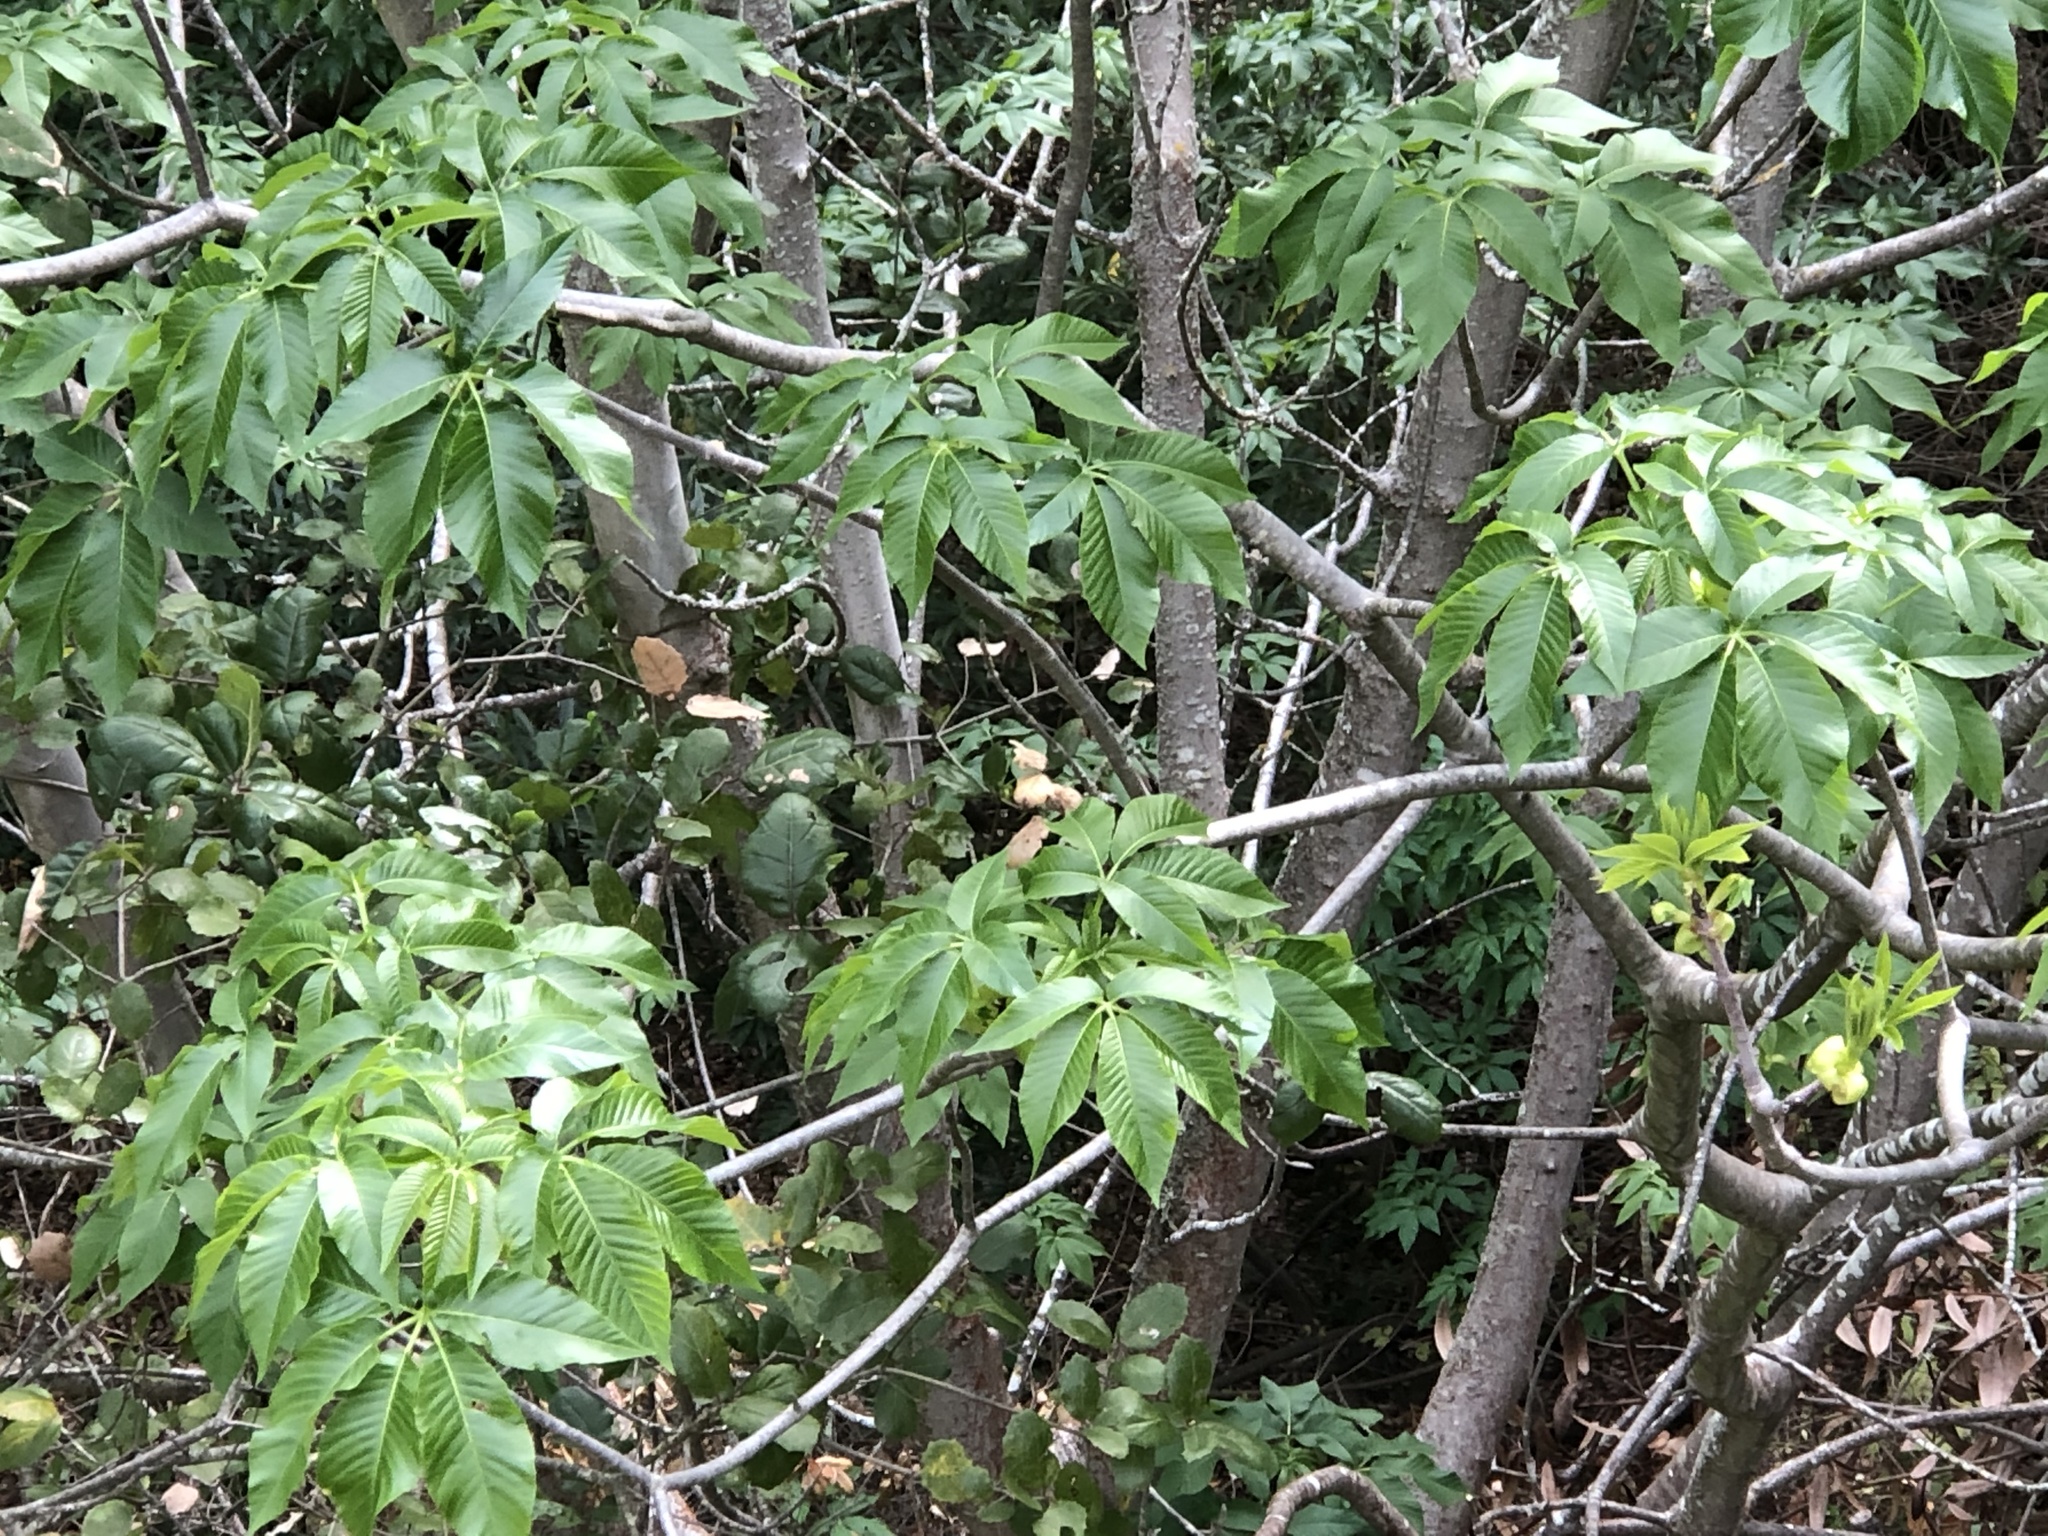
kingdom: Plantae
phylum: Tracheophyta
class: Magnoliopsida
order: Sapindales
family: Sapindaceae
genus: Aesculus
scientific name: Aesculus californica
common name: California buckeye
